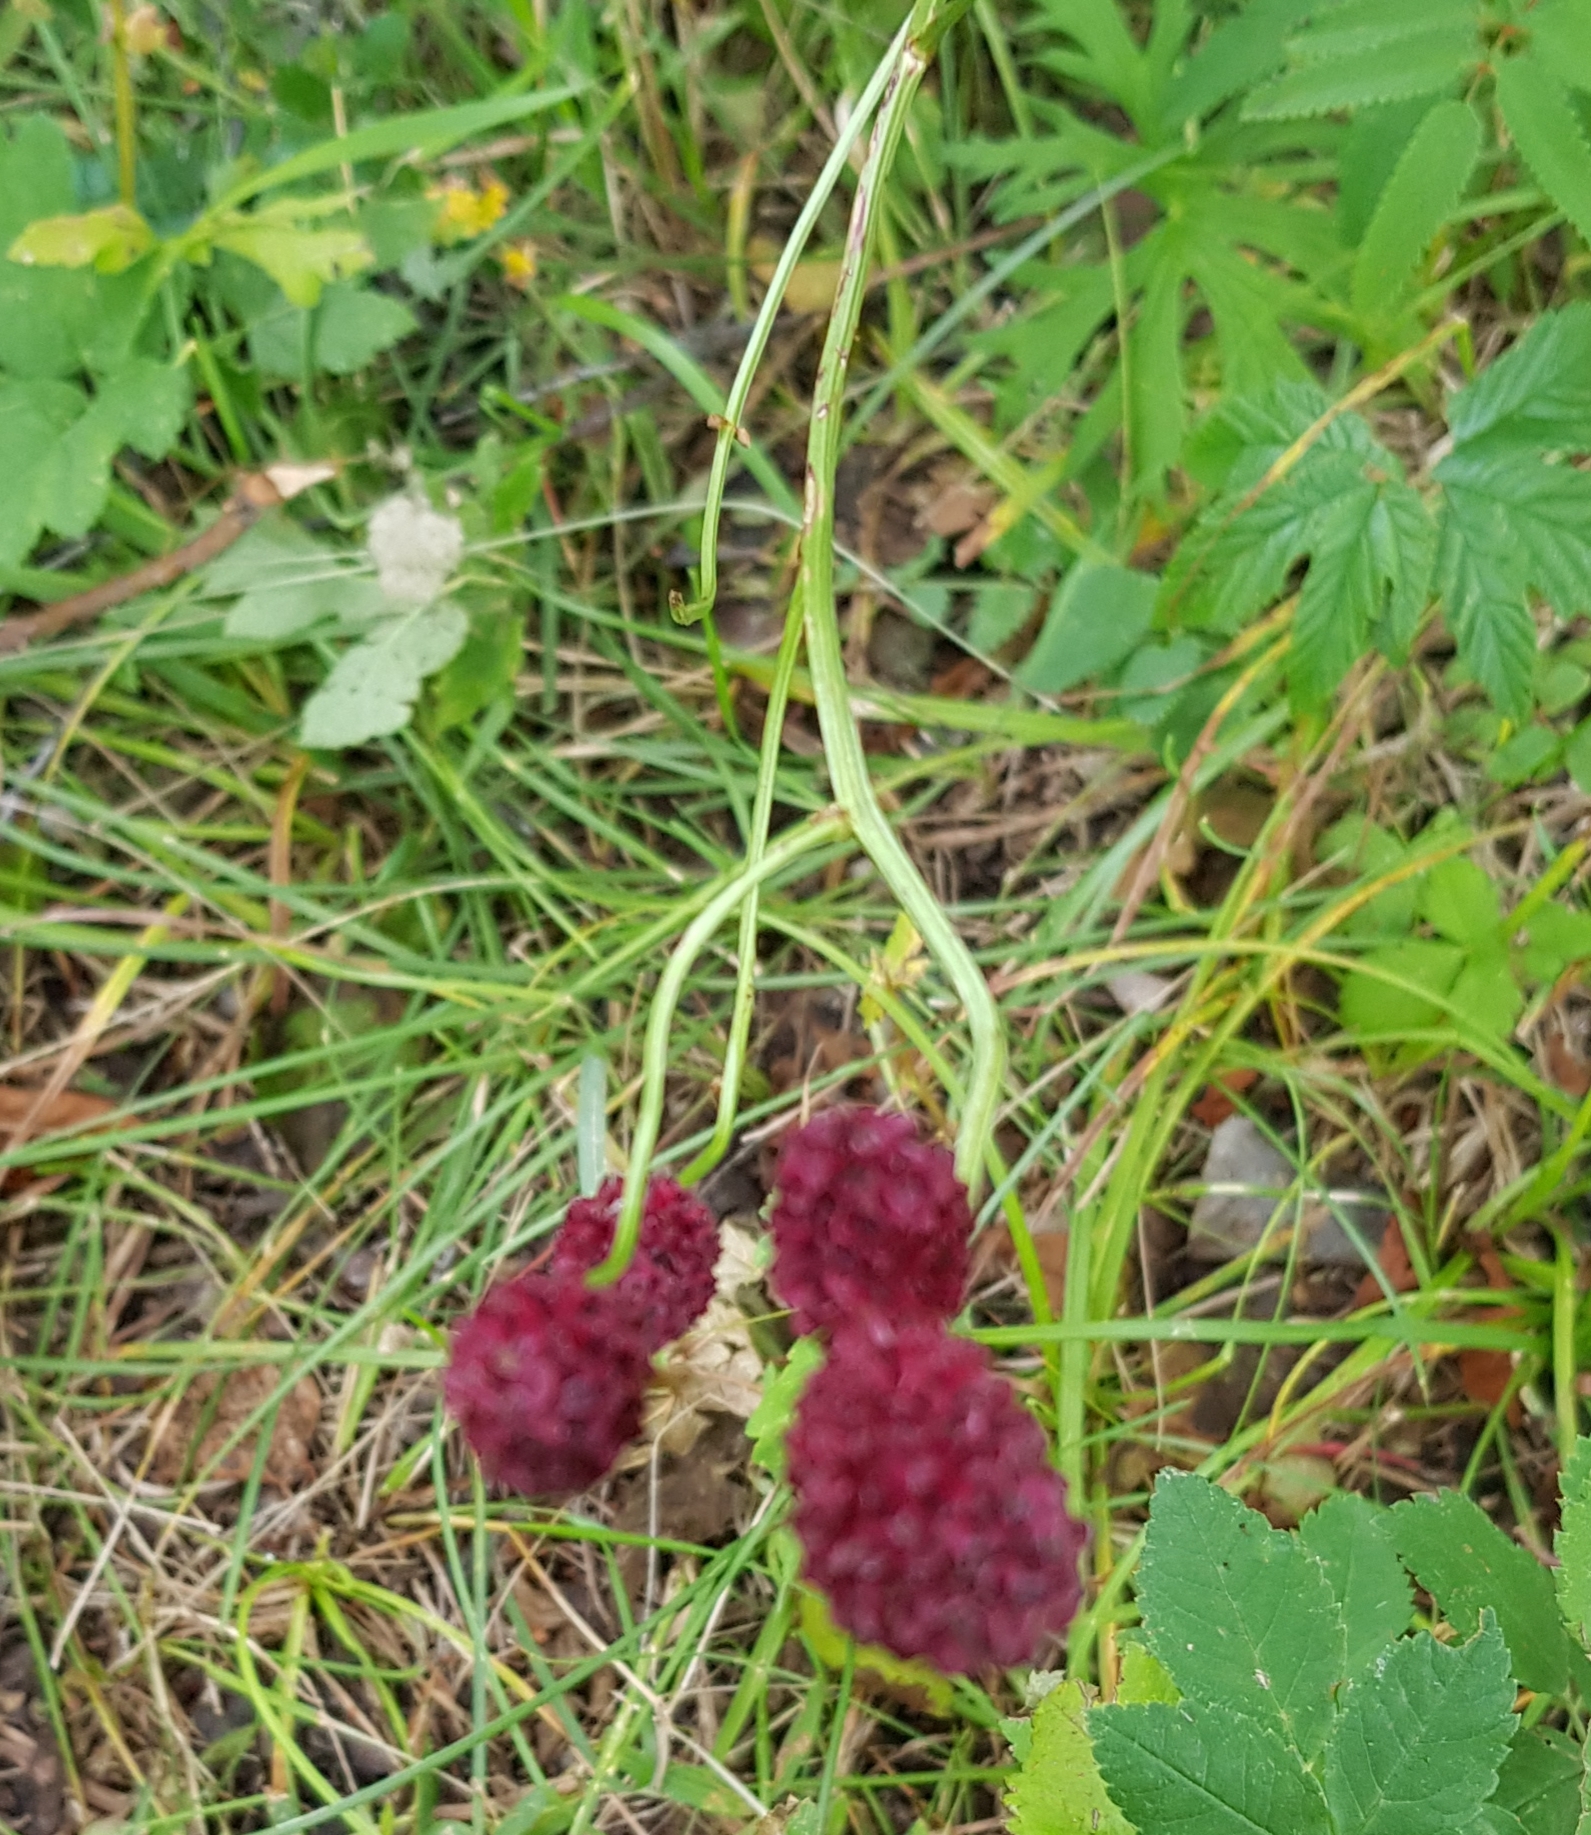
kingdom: Plantae
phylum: Tracheophyta
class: Magnoliopsida
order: Rosales
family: Rosaceae
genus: Sanguisorba
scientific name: Sanguisorba officinalis
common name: Great burnet
